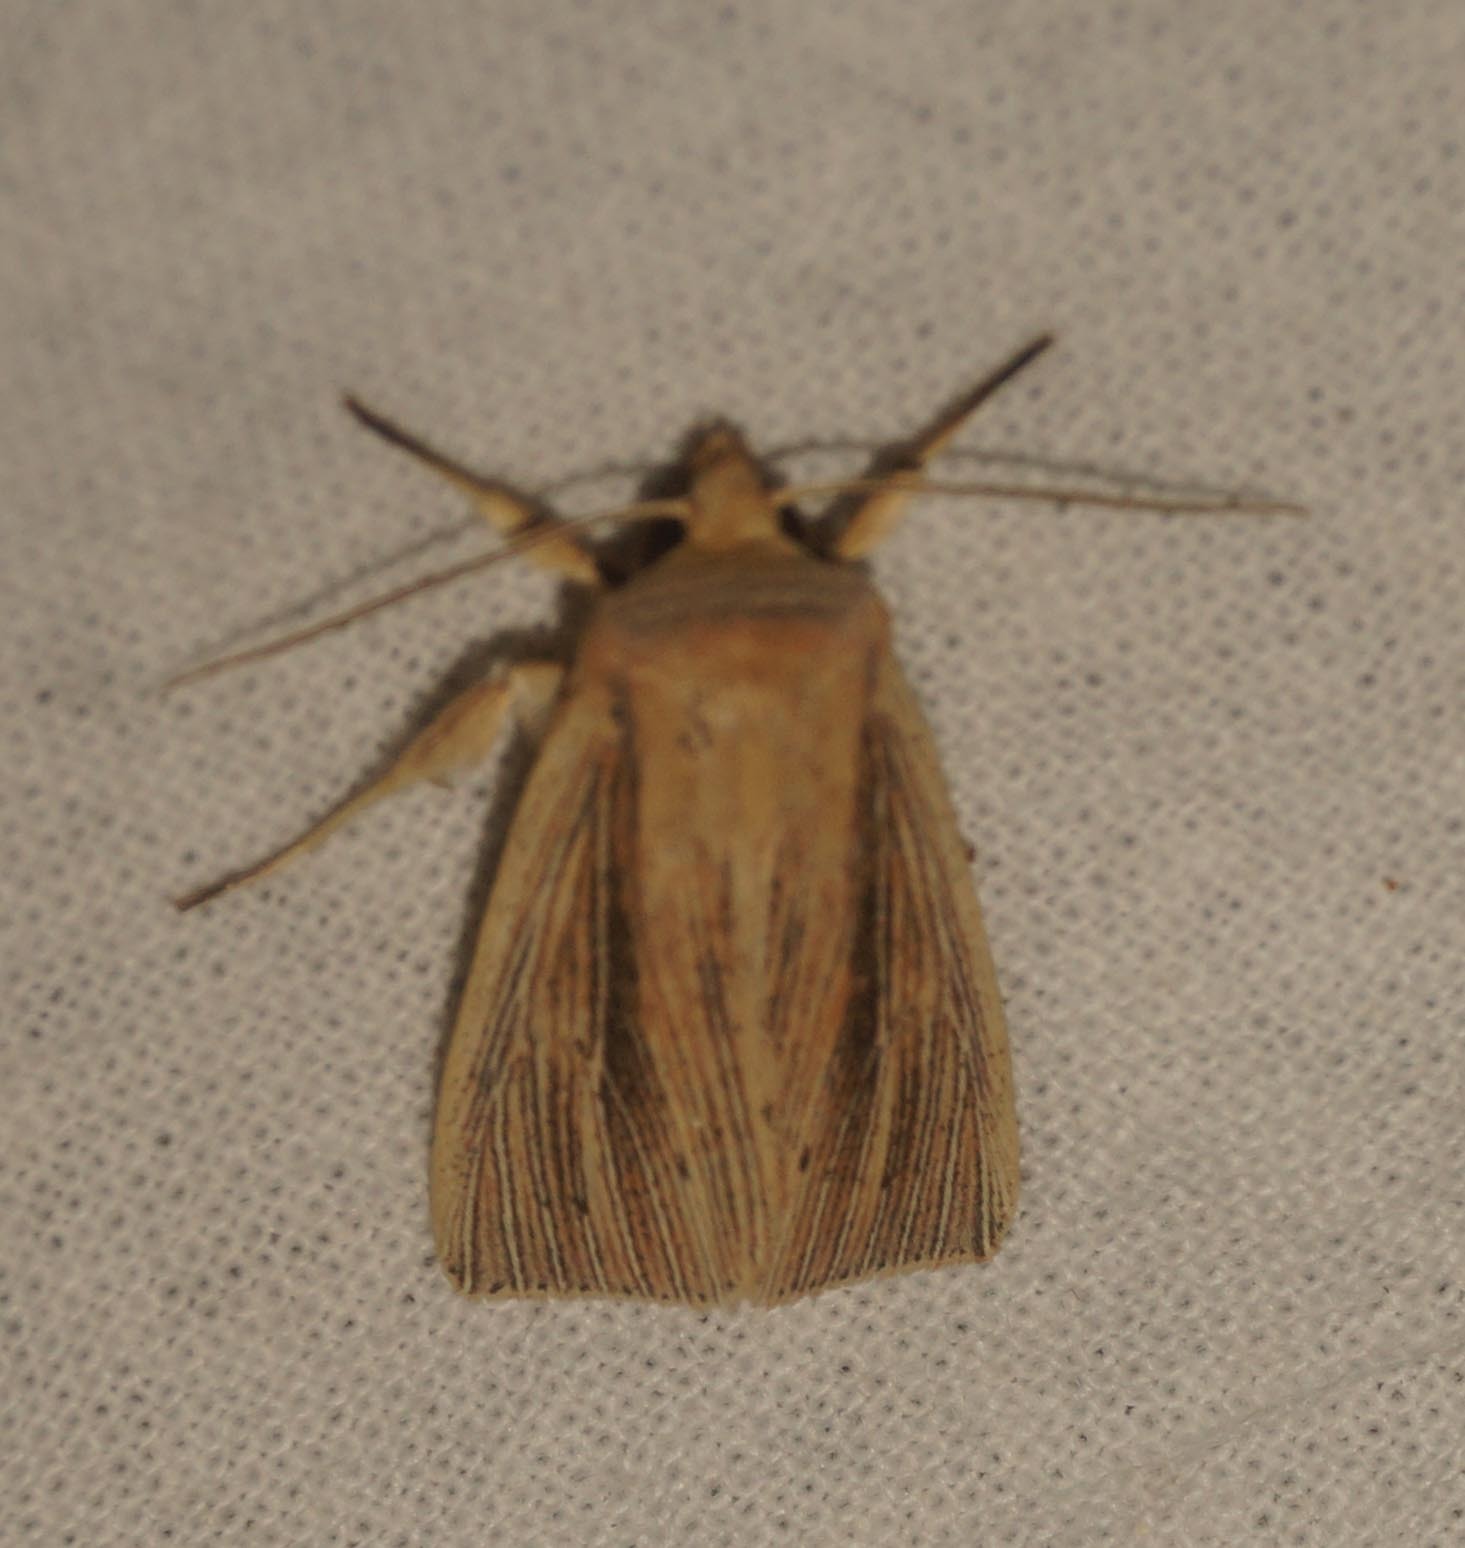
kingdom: Animalia
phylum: Arthropoda
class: Insecta
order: Lepidoptera
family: Noctuidae
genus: Mythimna
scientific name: Mythimna impura
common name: Smoky wainscot
